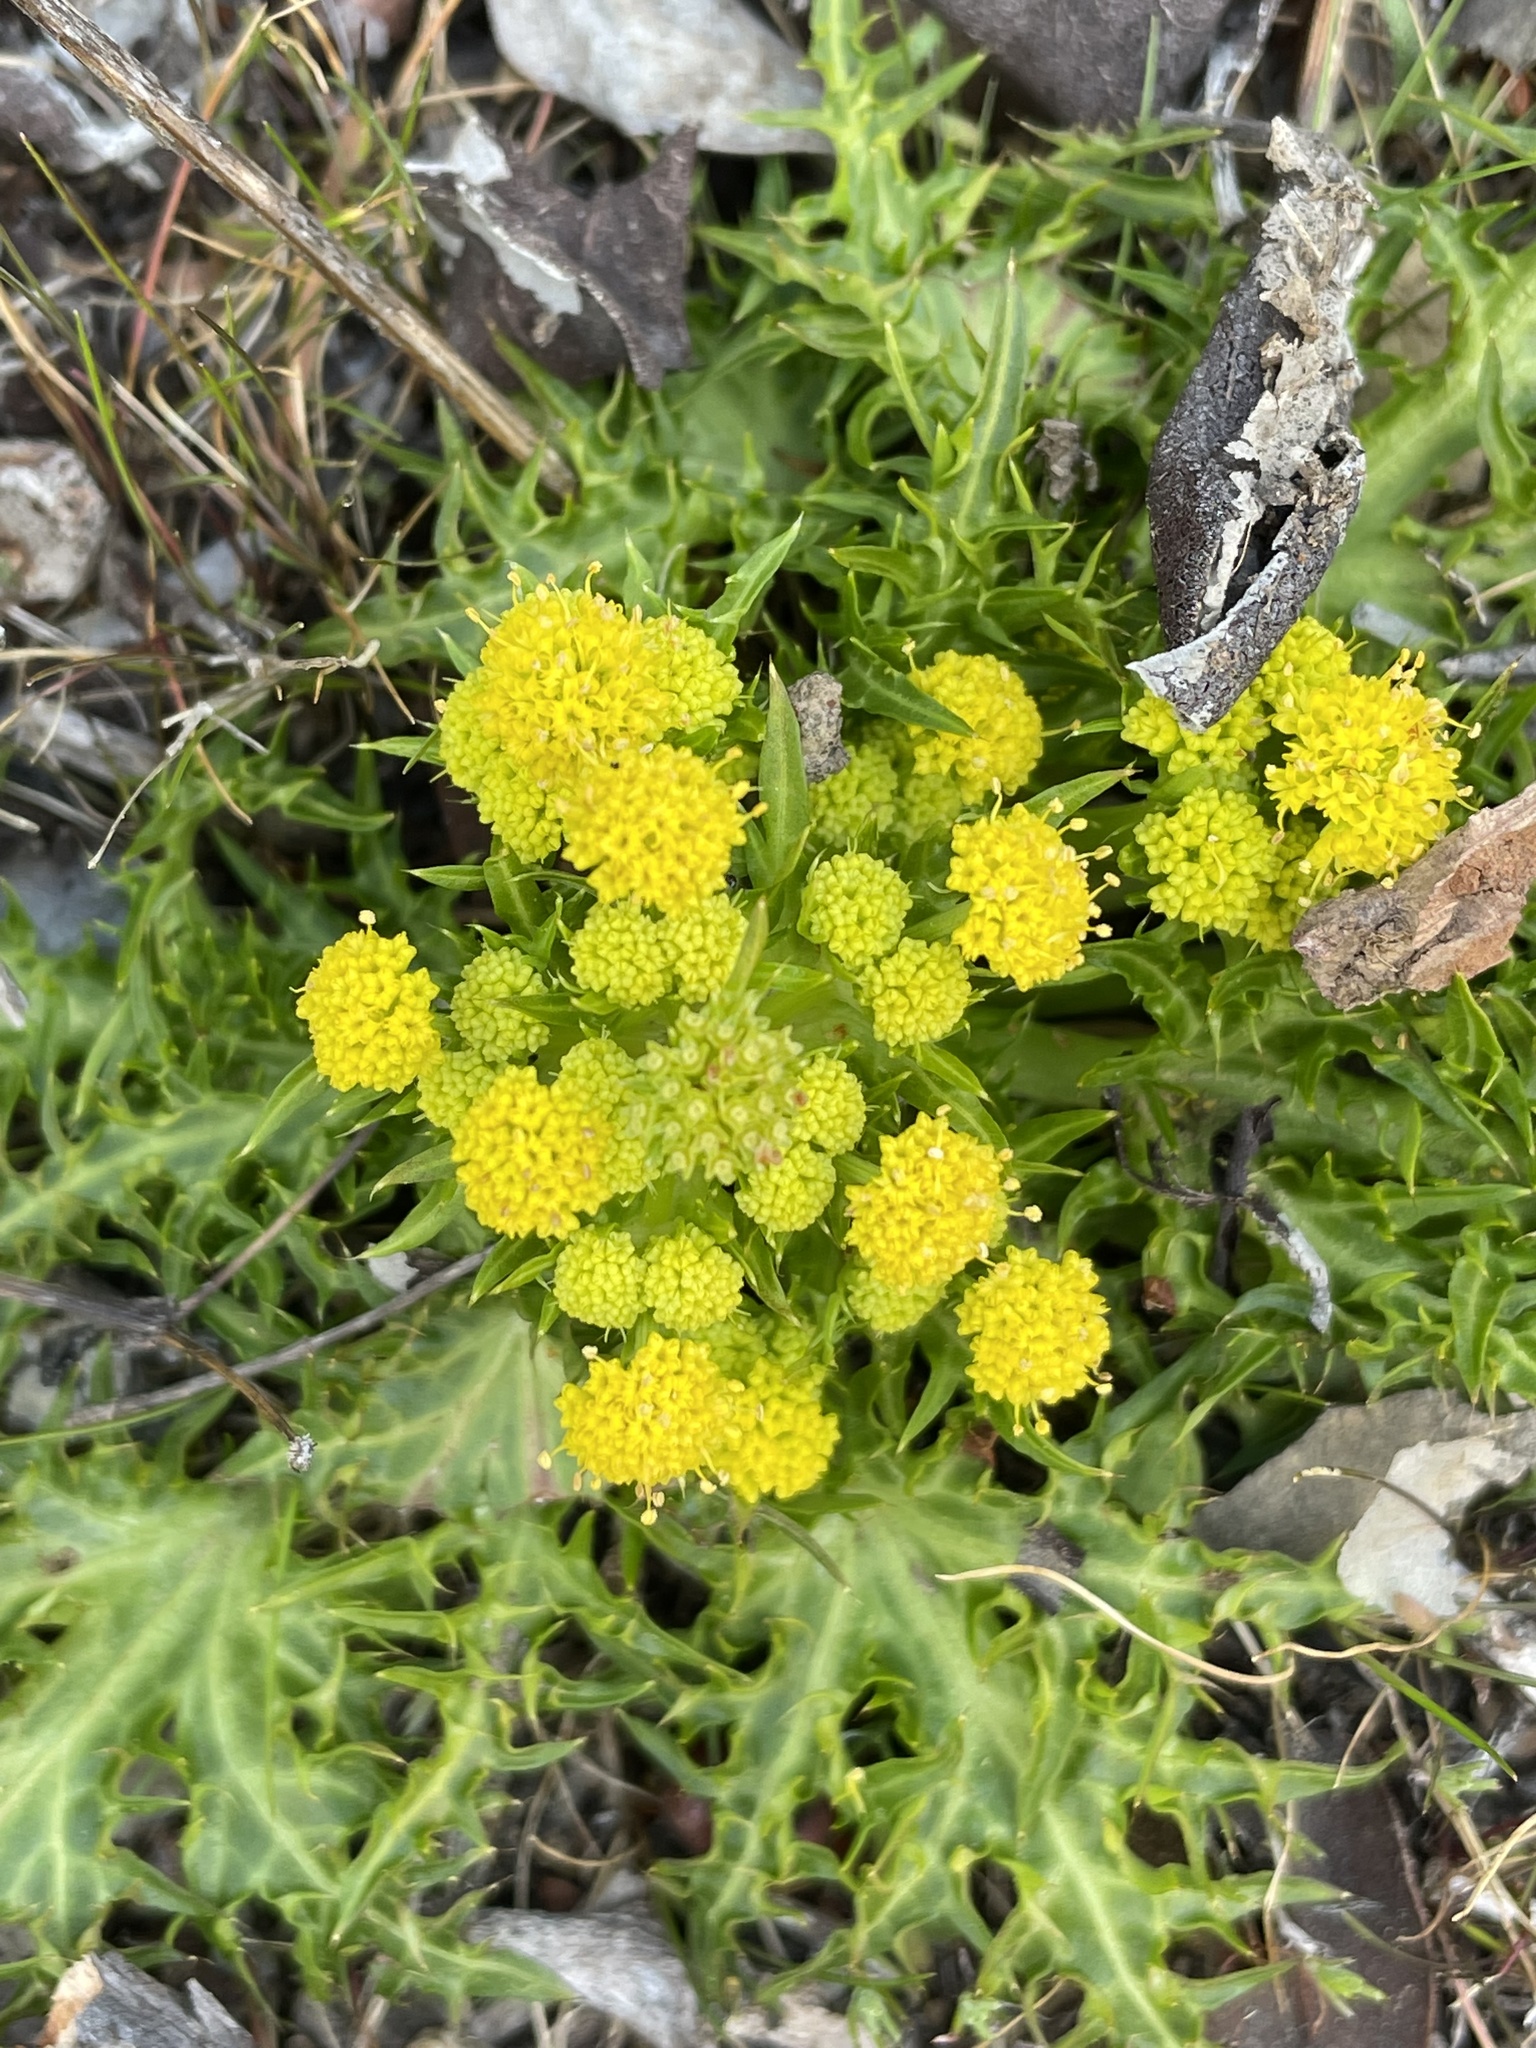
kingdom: Plantae
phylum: Tracheophyta
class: Magnoliopsida
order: Apiales
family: Apiaceae
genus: Sanicula
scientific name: Sanicula laciniata
